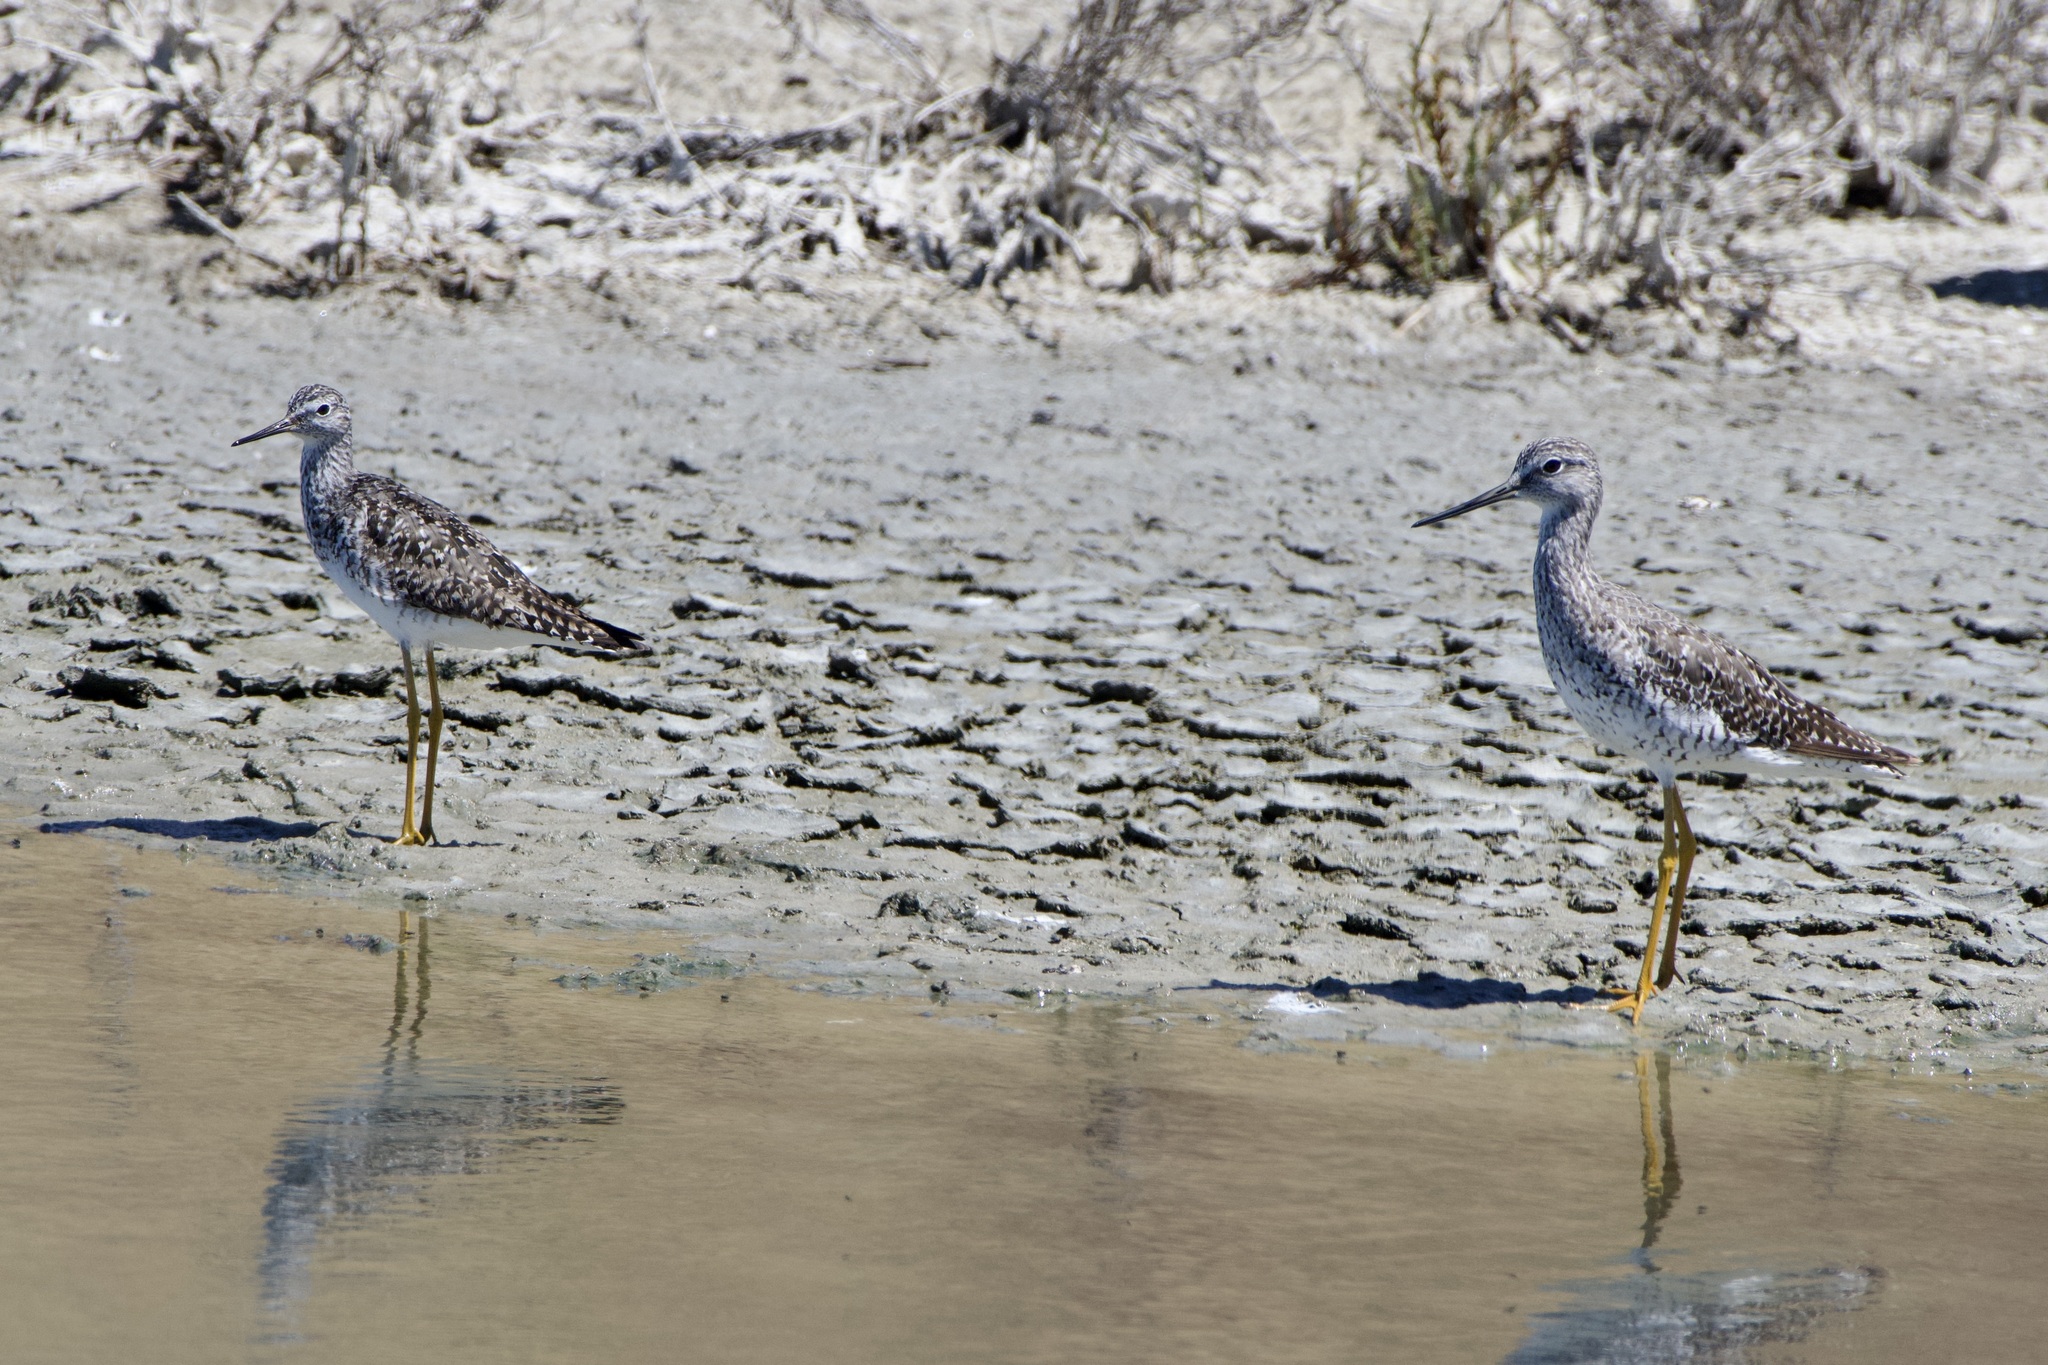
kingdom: Animalia
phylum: Chordata
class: Aves
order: Charadriiformes
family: Scolopacidae
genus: Tringa
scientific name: Tringa flavipes
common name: Lesser yellowlegs
